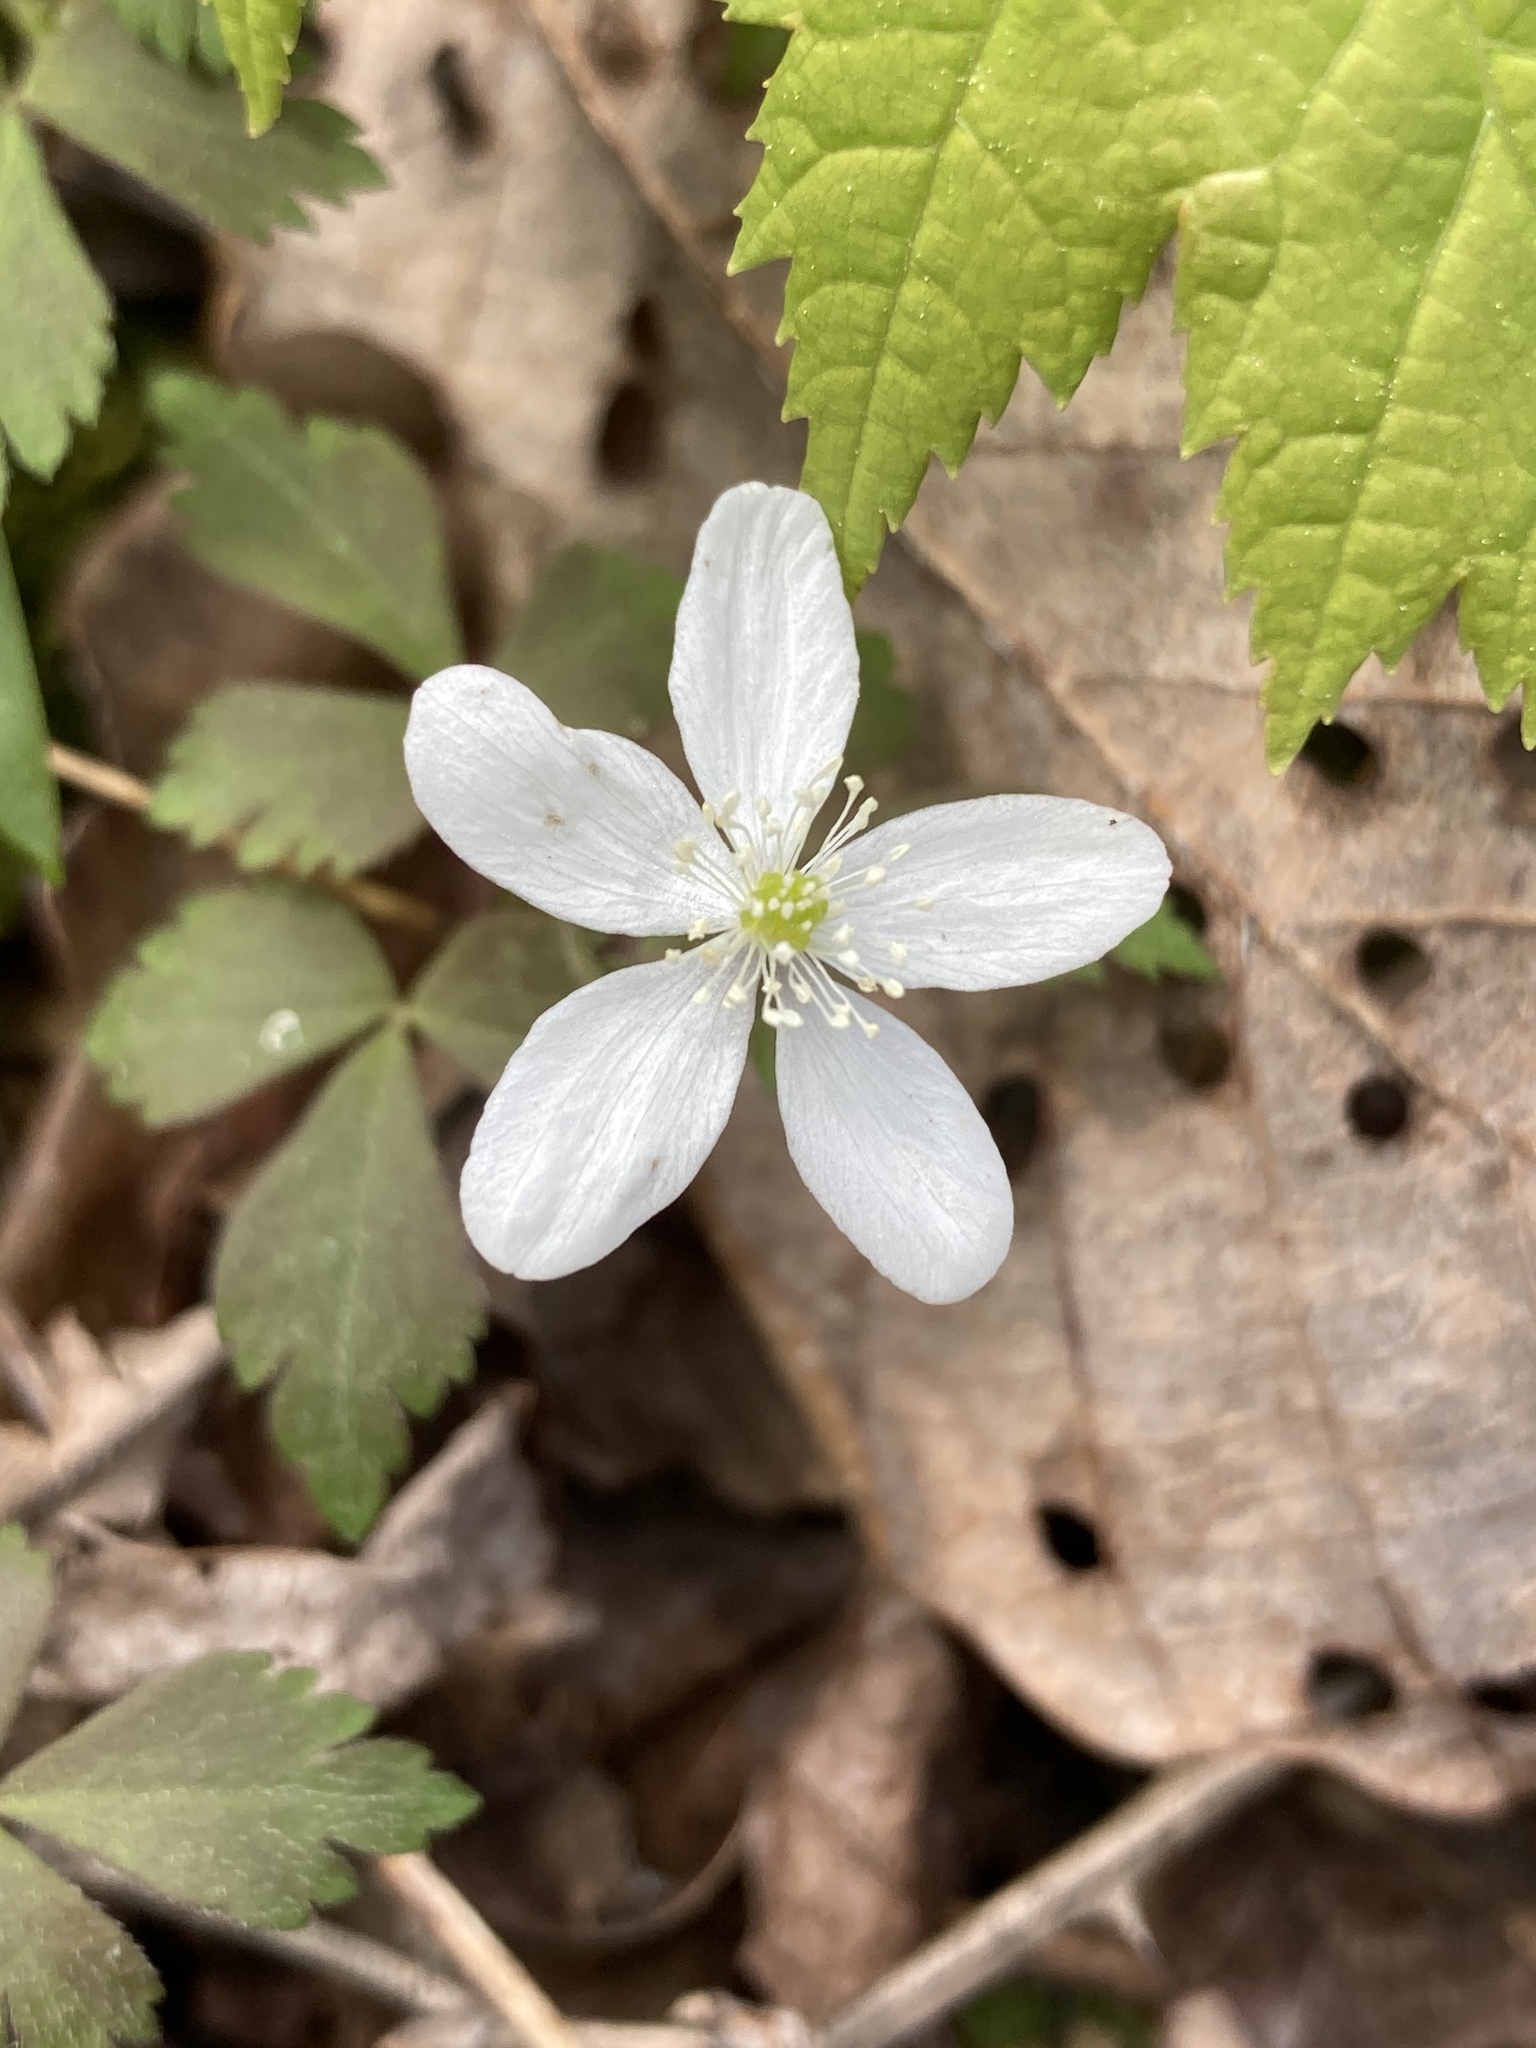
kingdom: Plantae
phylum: Tracheophyta
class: Magnoliopsida
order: Ranunculales
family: Ranunculaceae
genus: Anemone
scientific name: Anemone quinquefolia
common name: Wood anemone
